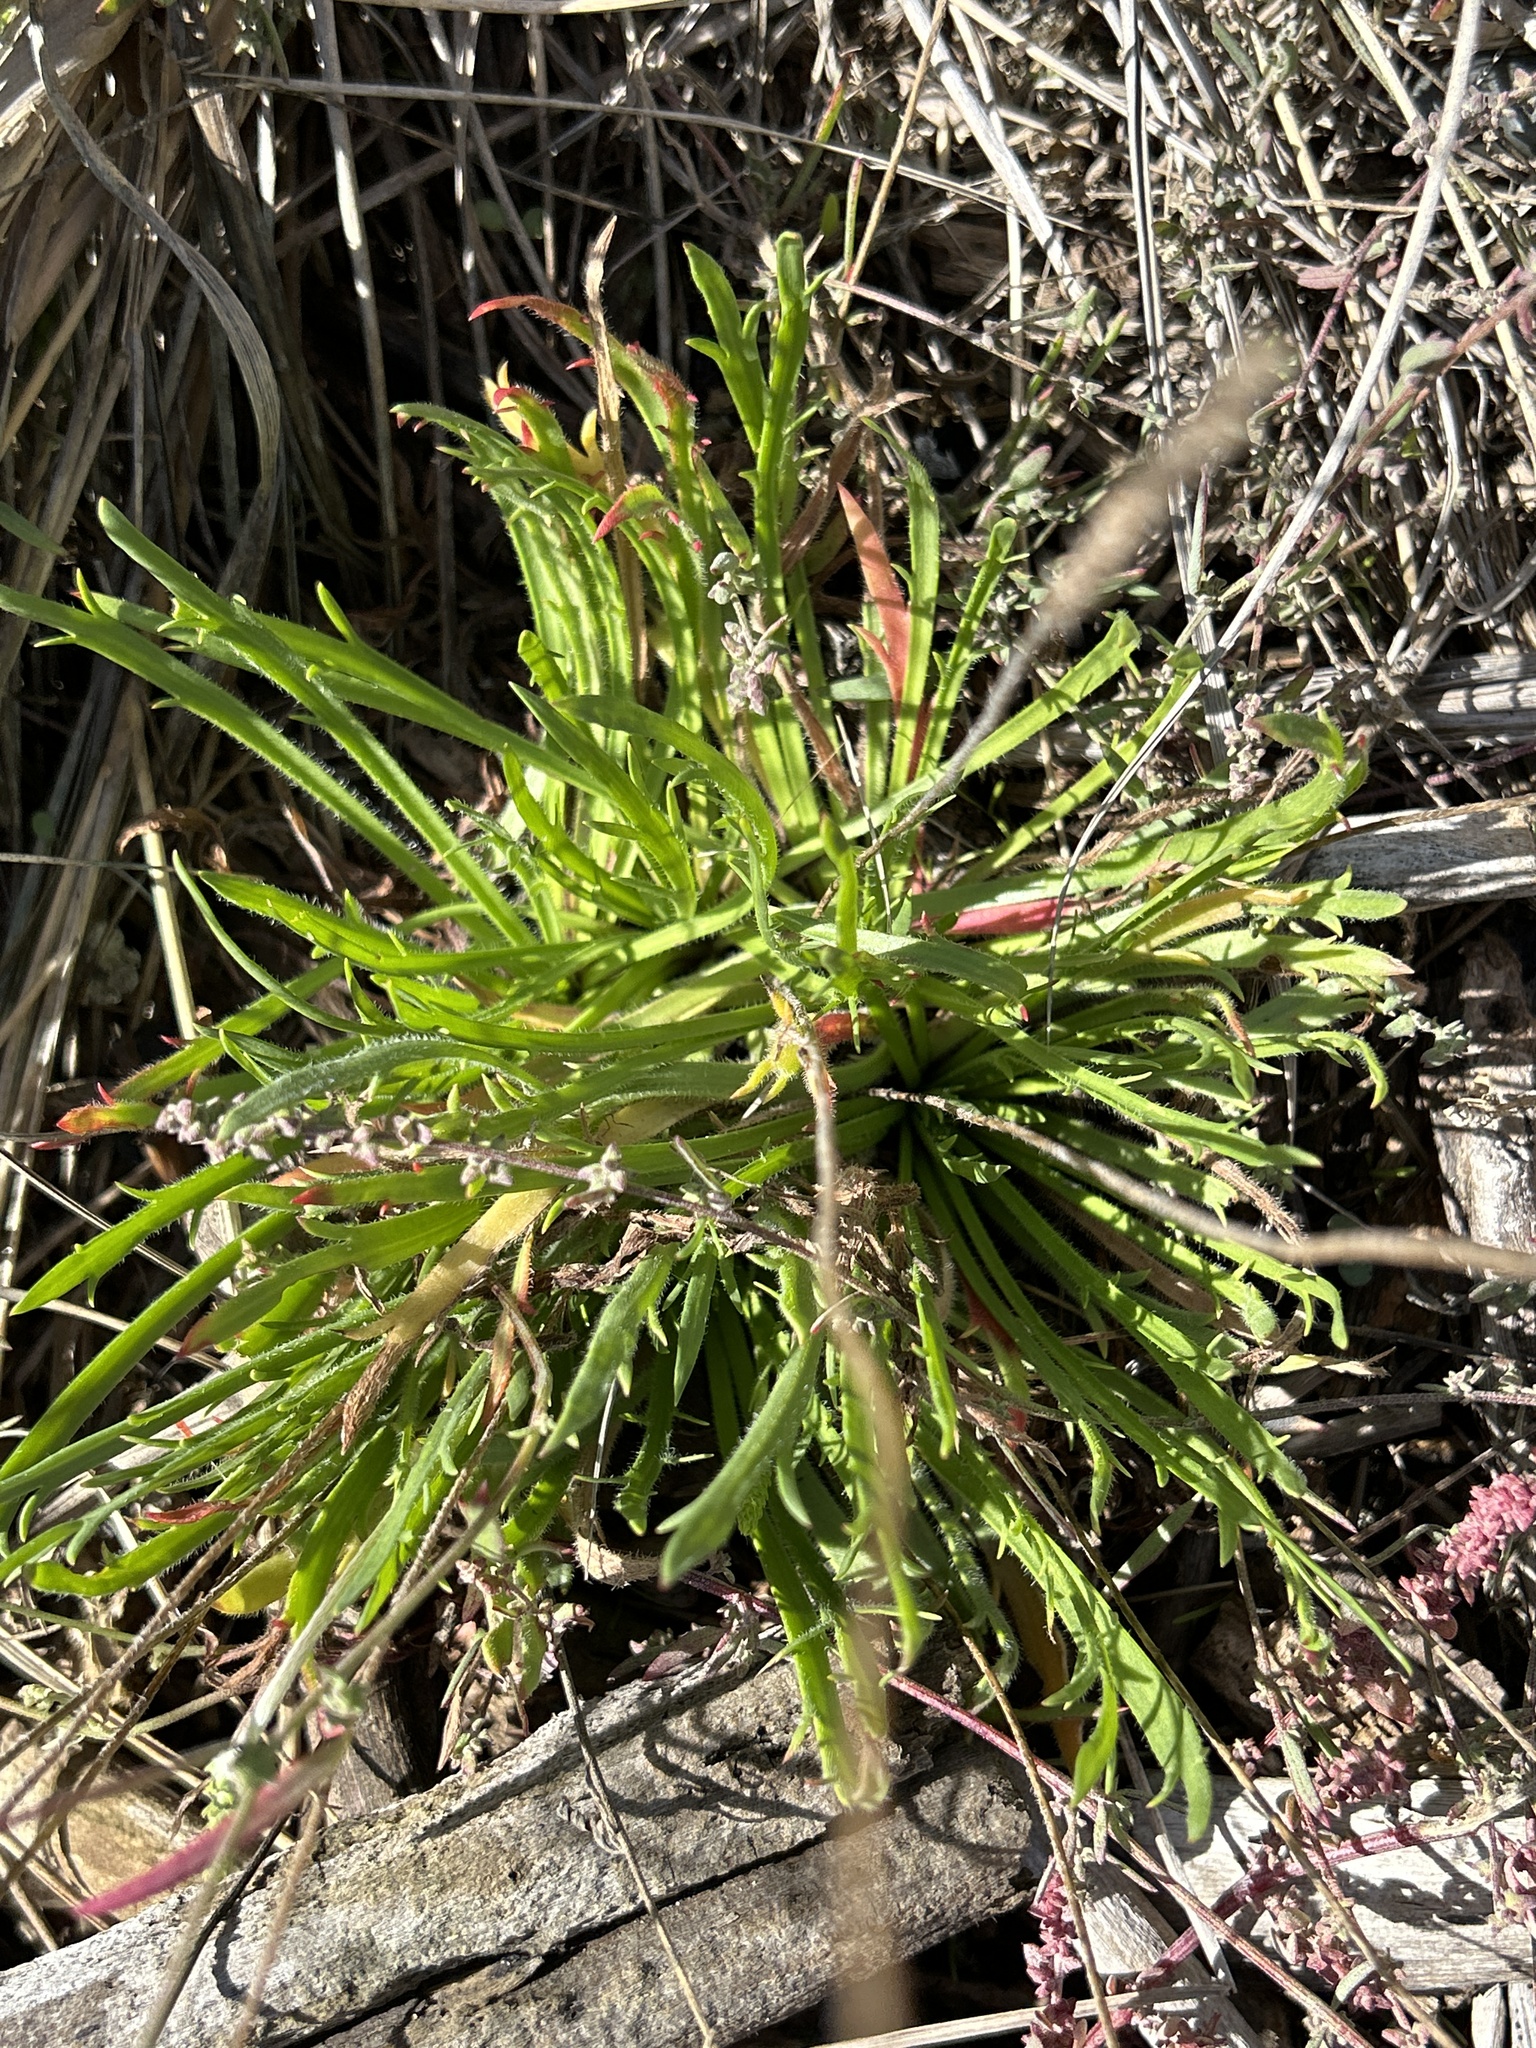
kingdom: Plantae
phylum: Tracheophyta
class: Magnoliopsida
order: Lamiales
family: Plantaginaceae
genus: Plantago
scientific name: Plantago coronopus
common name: Buck's-horn plantain
